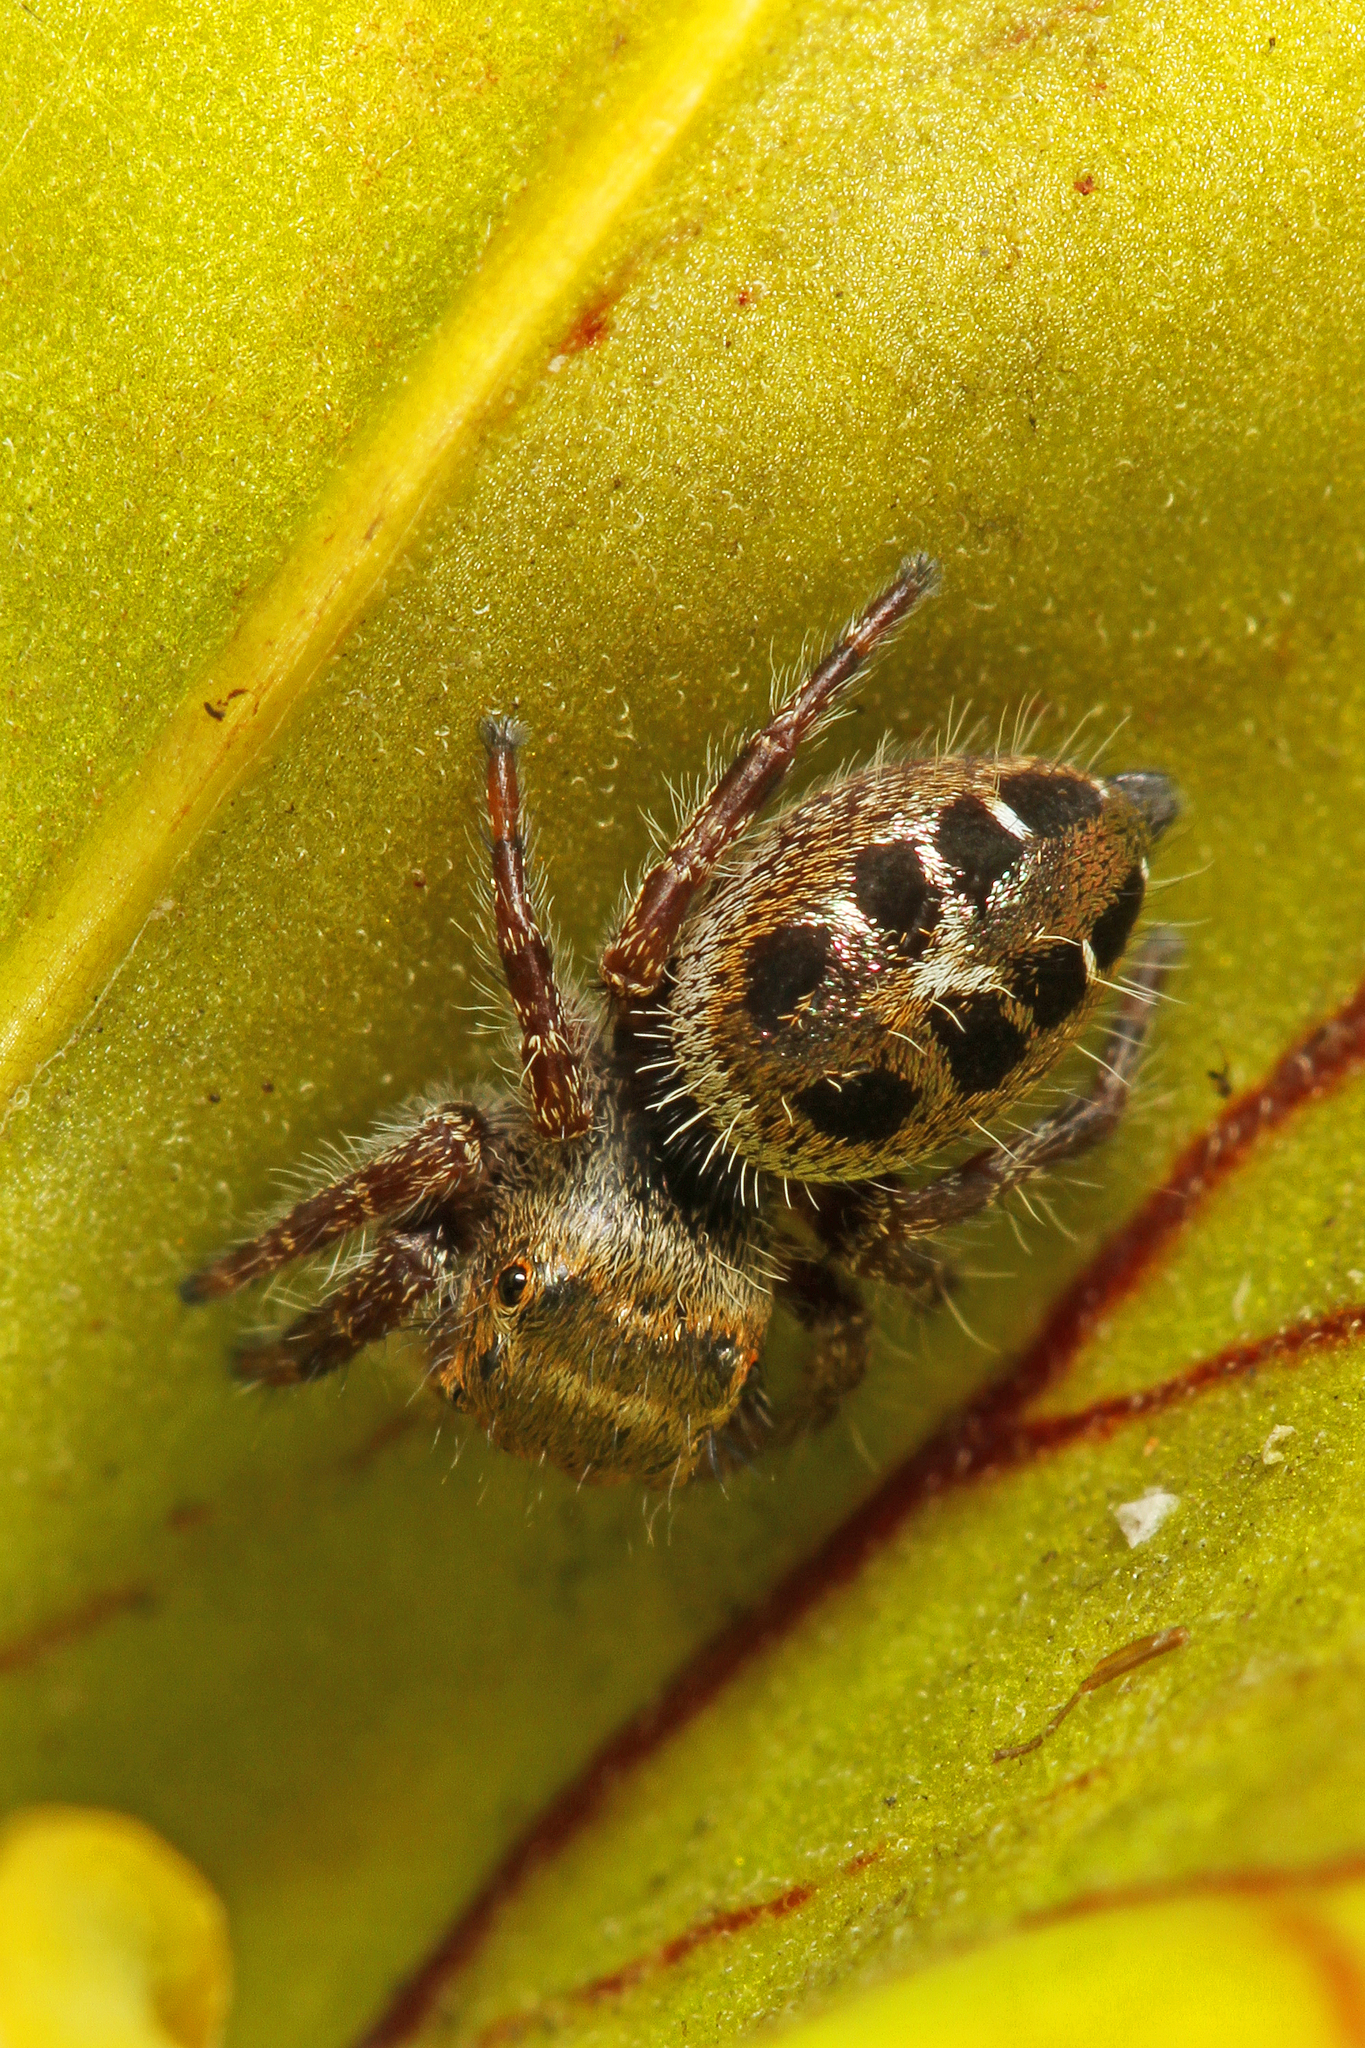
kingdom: Animalia
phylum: Arthropoda
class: Arachnida
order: Araneae
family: Salticidae
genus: Phidippus
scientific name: Phidippus princeps
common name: Grayish jumping spider
